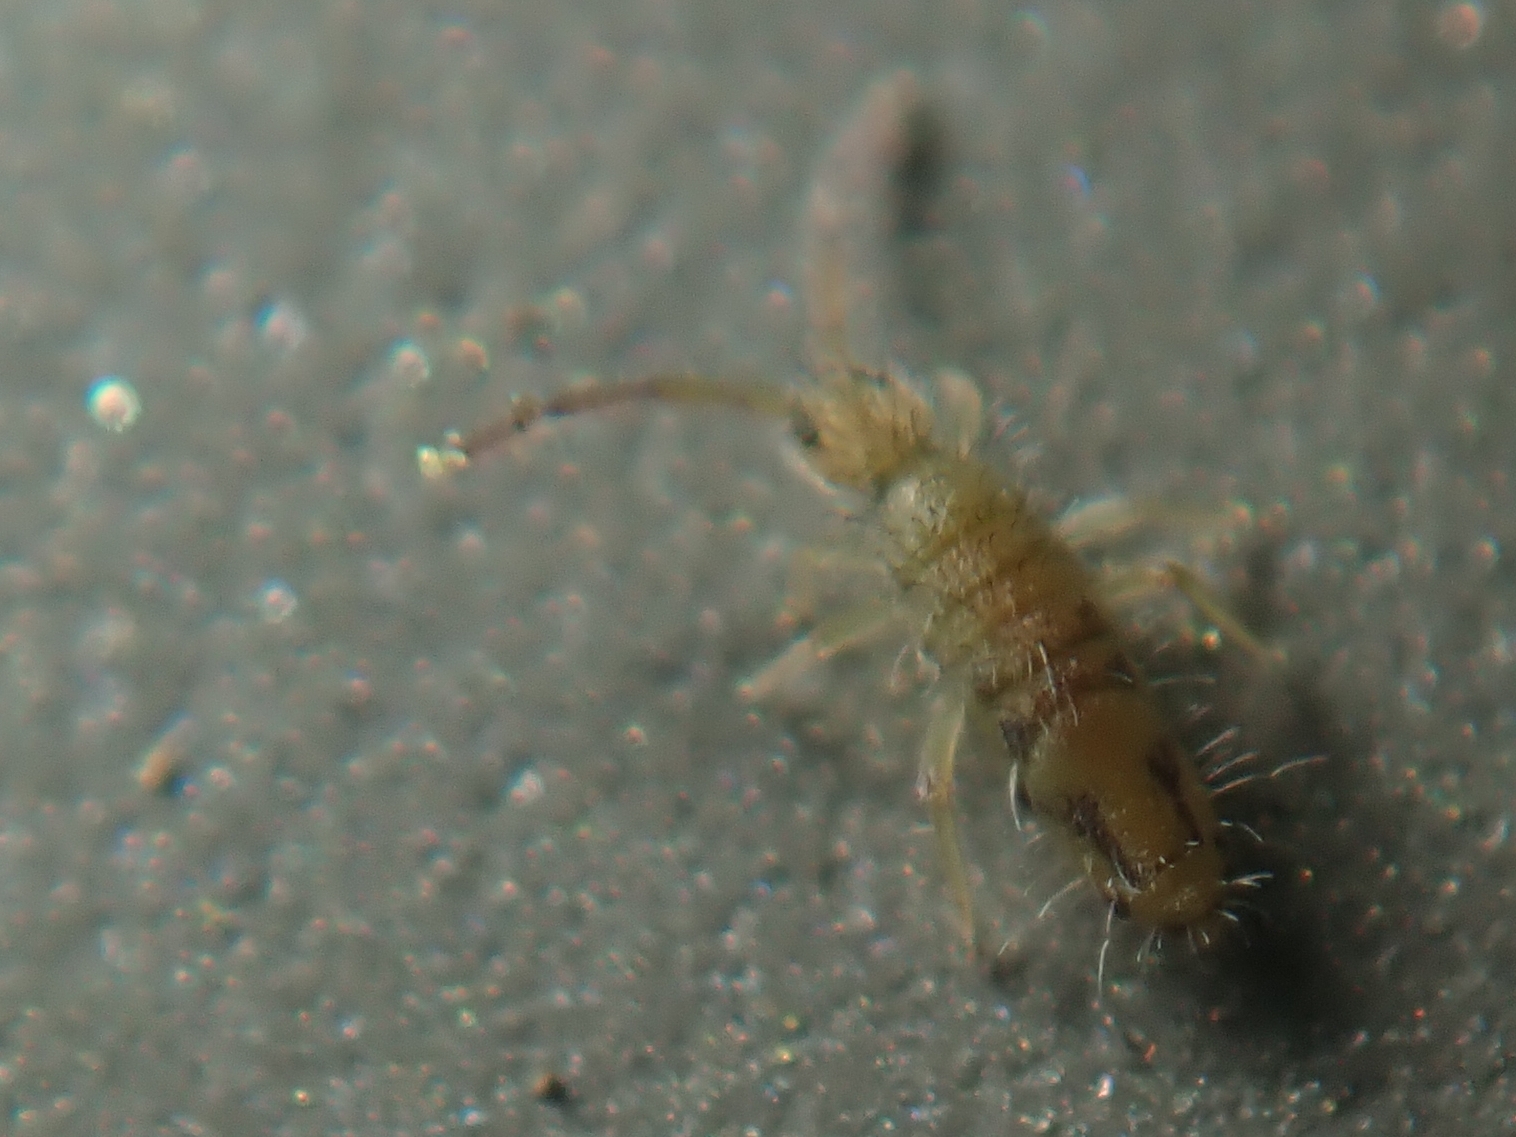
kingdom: Animalia
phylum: Arthropoda
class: Collembola
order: Entomobryomorpha
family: Entomobryidae
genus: Entomobrya
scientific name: Entomobrya nivalis
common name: Cosmopolitan springtail
